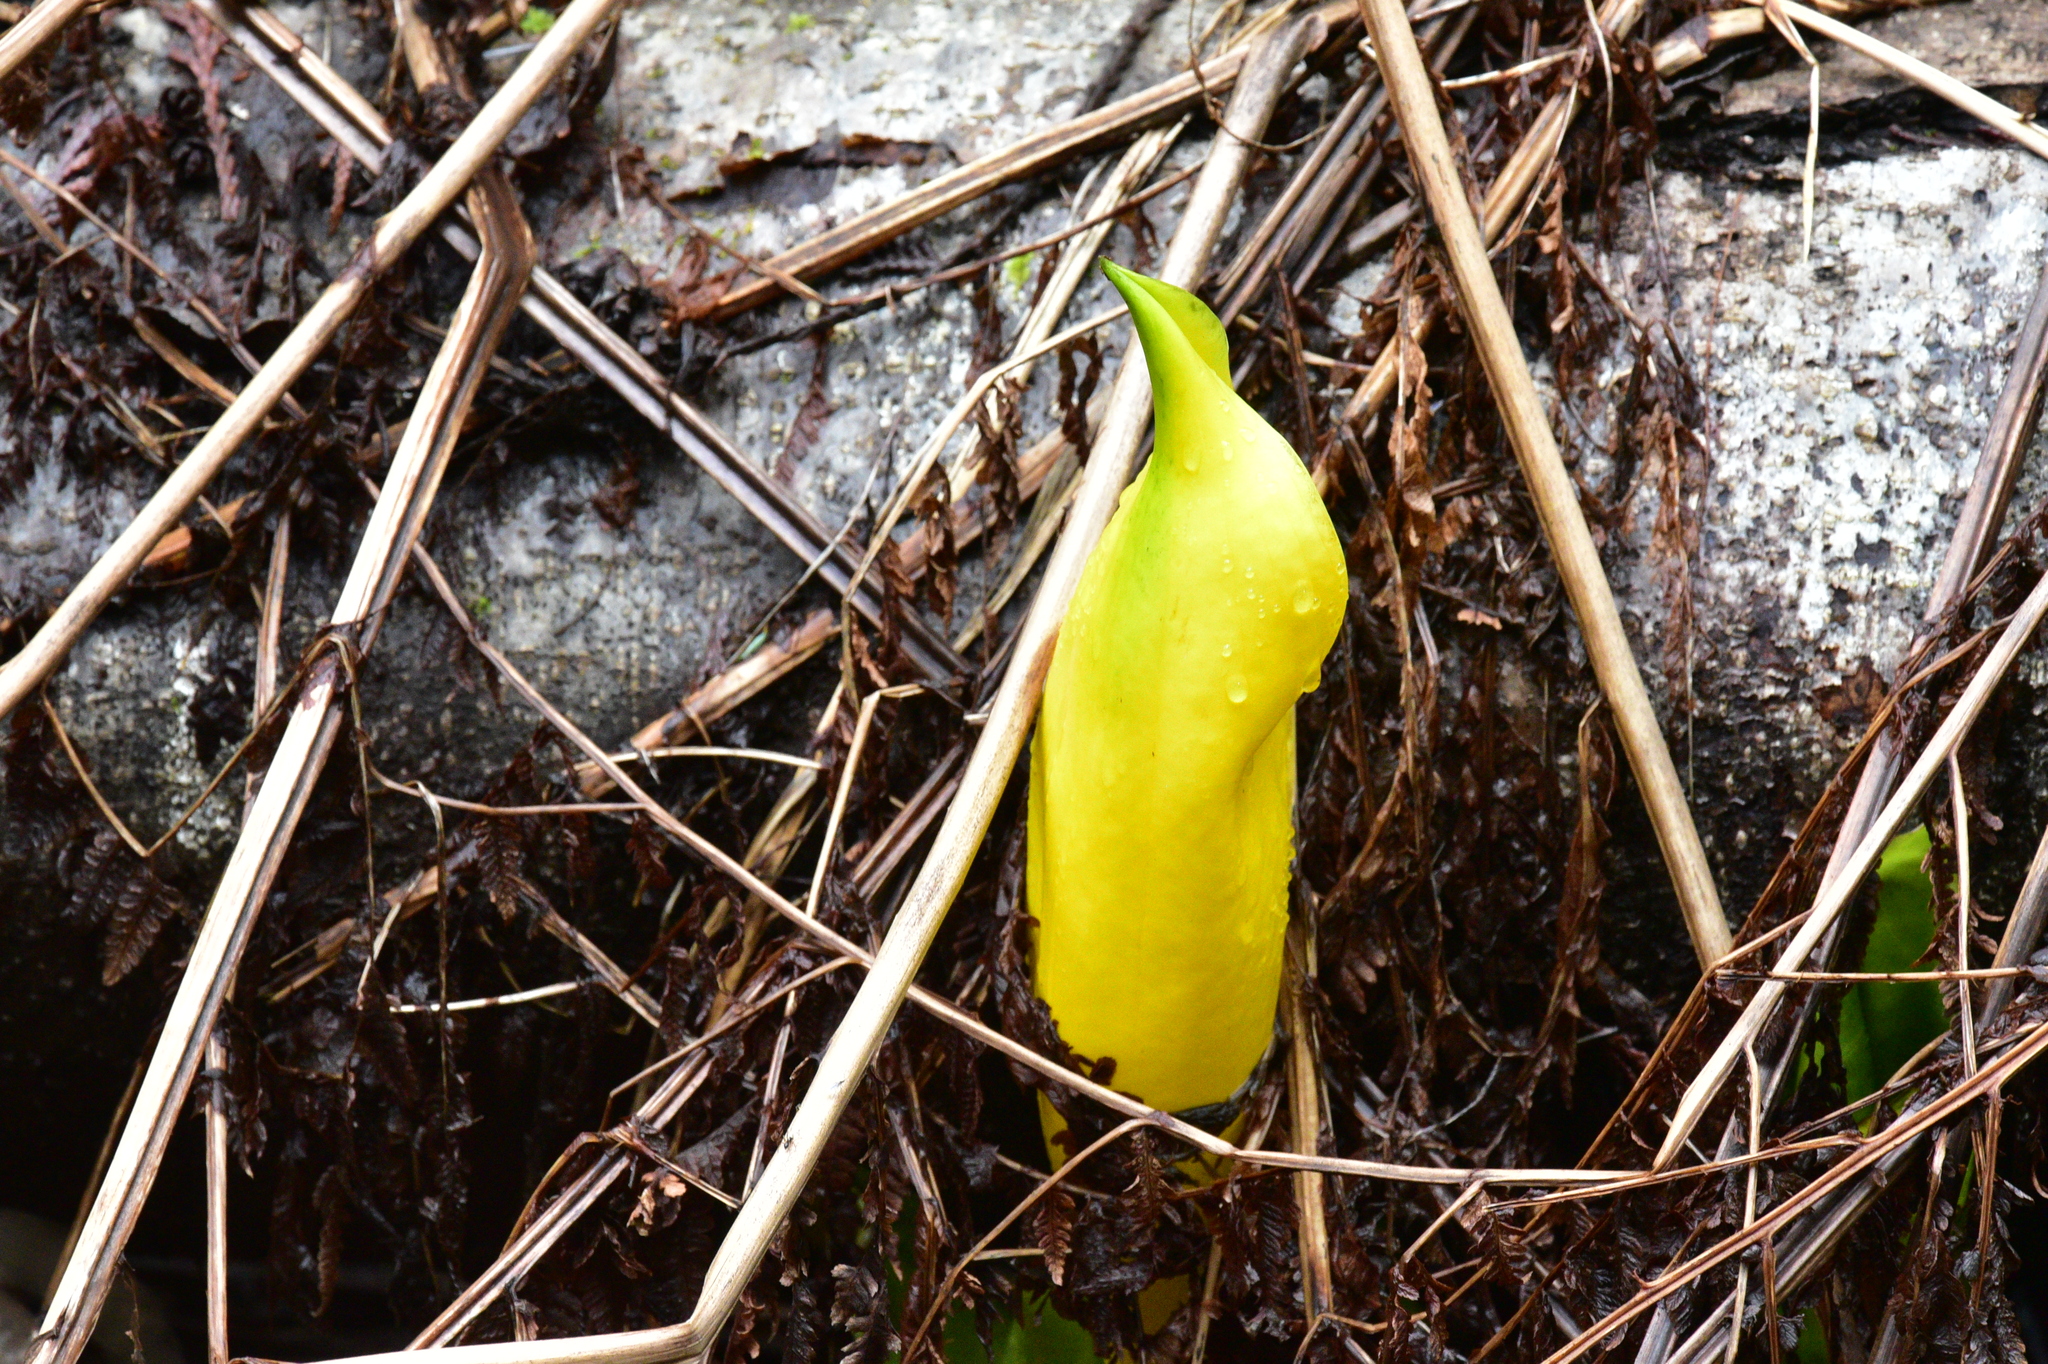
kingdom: Plantae
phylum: Tracheophyta
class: Liliopsida
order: Alismatales
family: Araceae
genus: Lysichiton
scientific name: Lysichiton americanus
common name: American skunk cabbage
